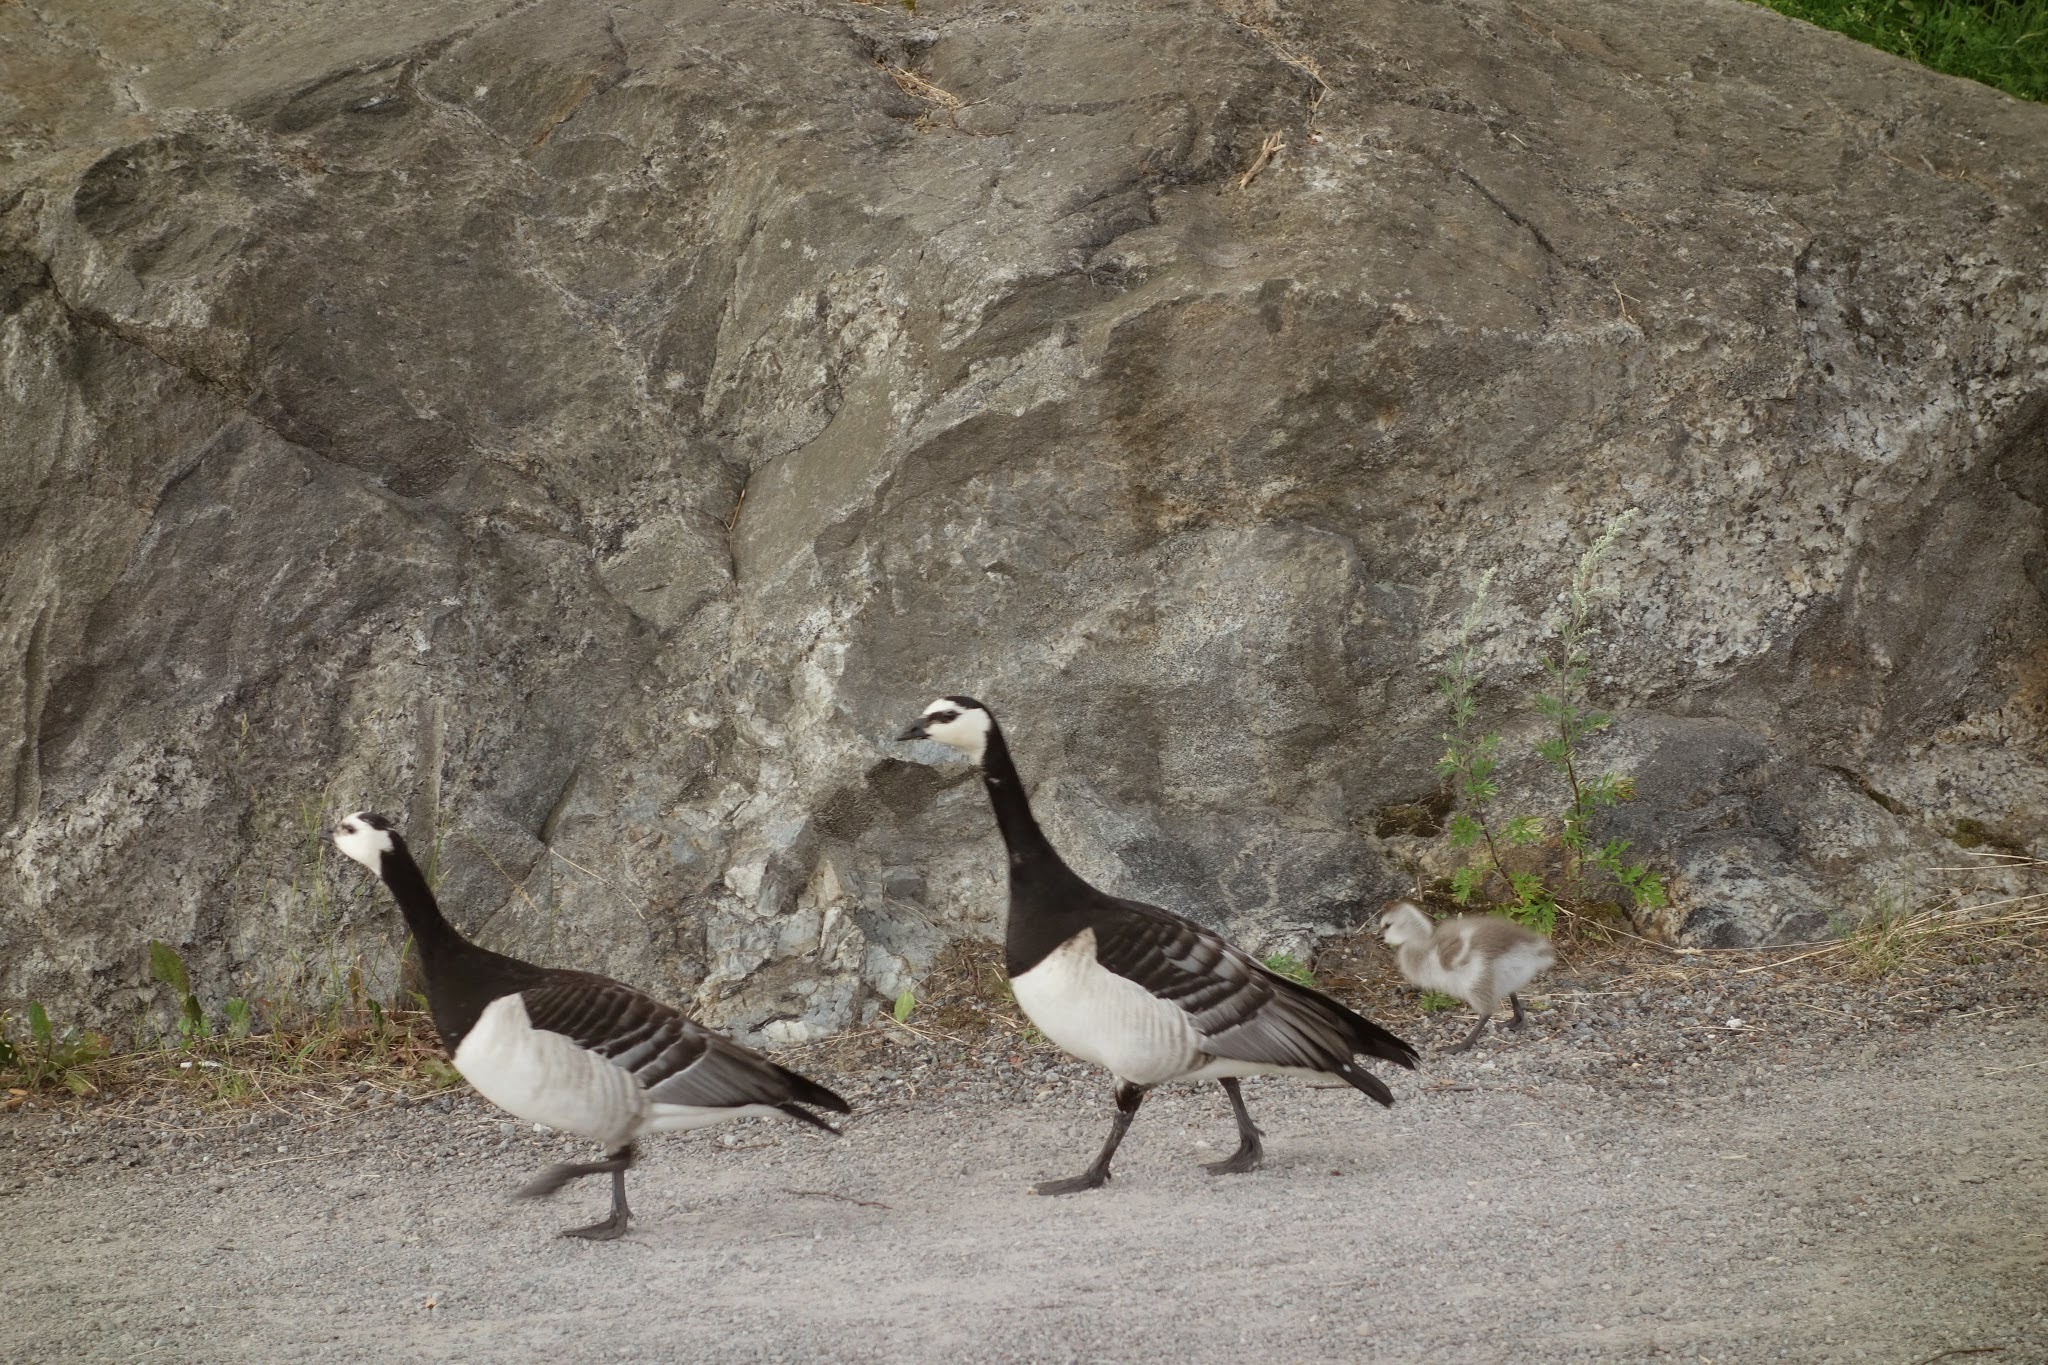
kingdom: Animalia
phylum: Chordata
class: Aves
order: Anseriformes
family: Anatidae
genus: Branta
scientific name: Branta leucopsis
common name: Barnacle goose
